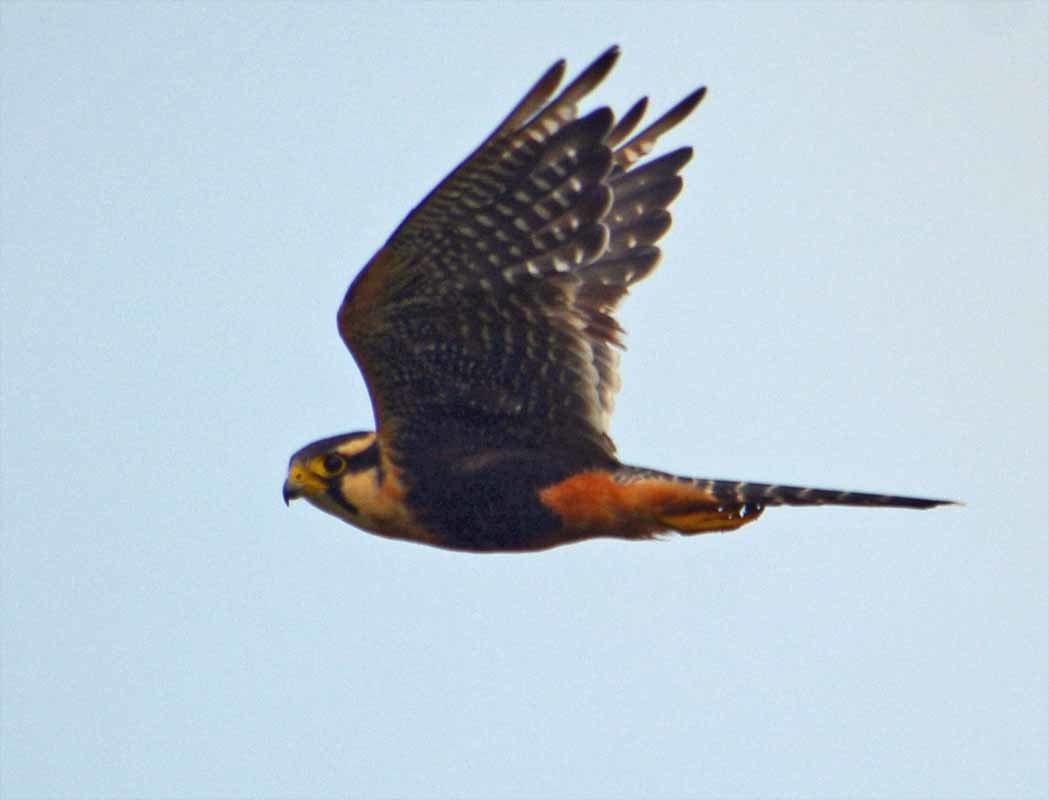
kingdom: Animalia
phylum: Chordata
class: Aves
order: Falconiformes
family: Falconidae
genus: Falco
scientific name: Falco femoralis
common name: Aplomado falcon
